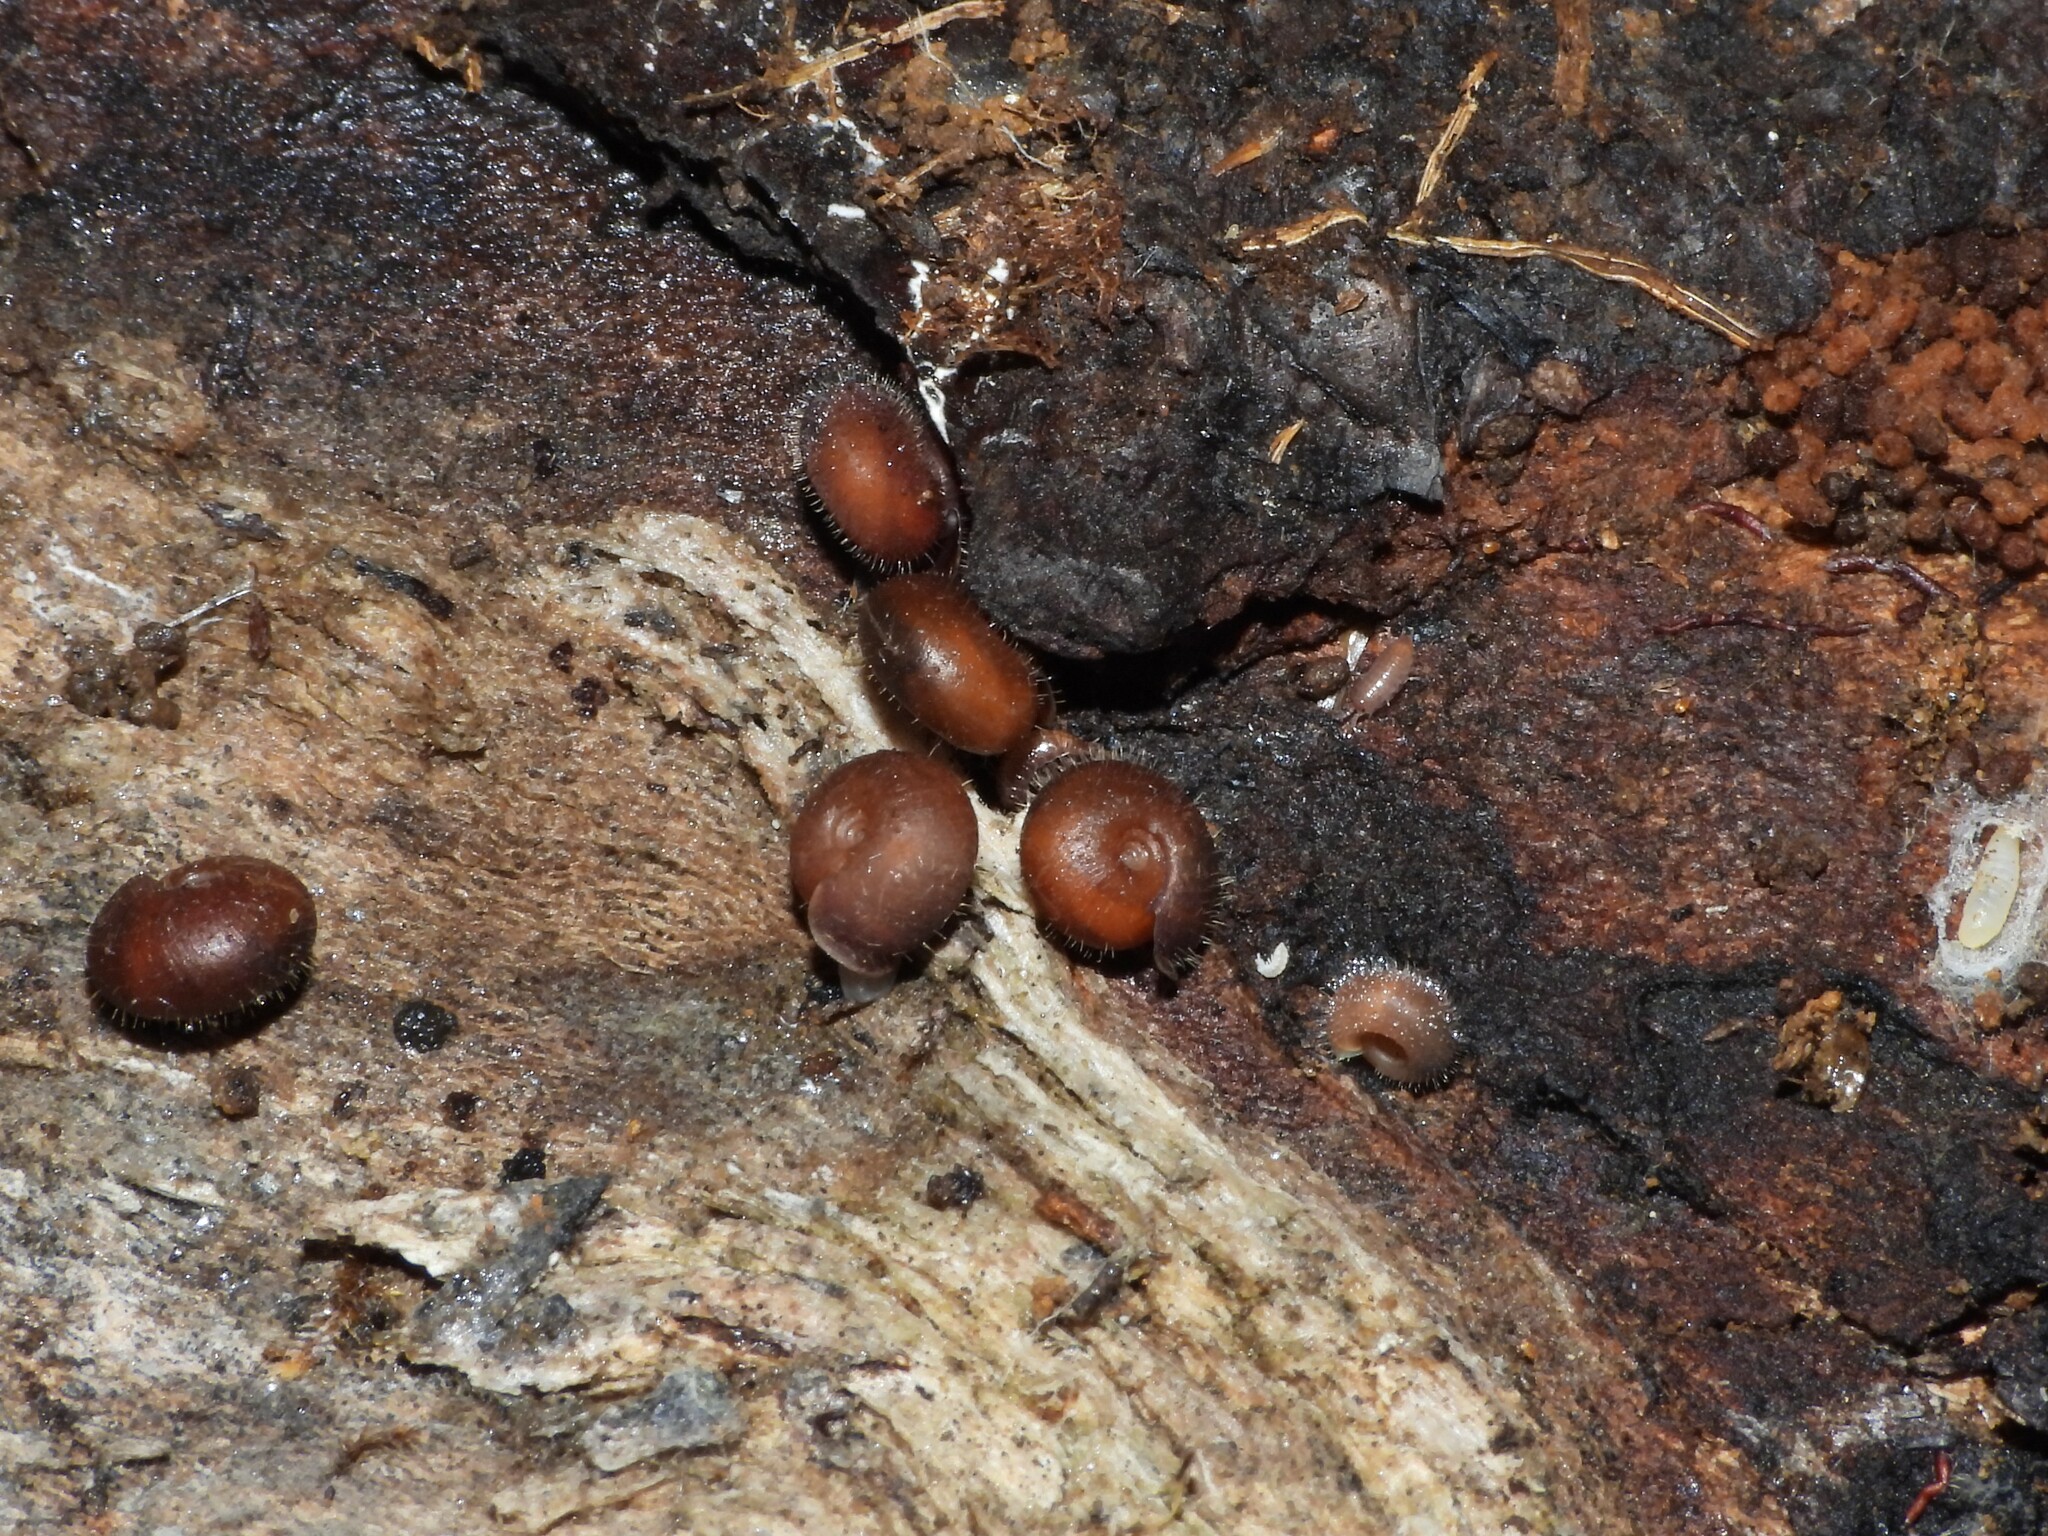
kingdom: Animalia
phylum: Mollusca
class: Gastropoda
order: Stylommatophora
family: Helicodontidae
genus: Drepanostoma
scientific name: Drepanostoma nautiliforme
